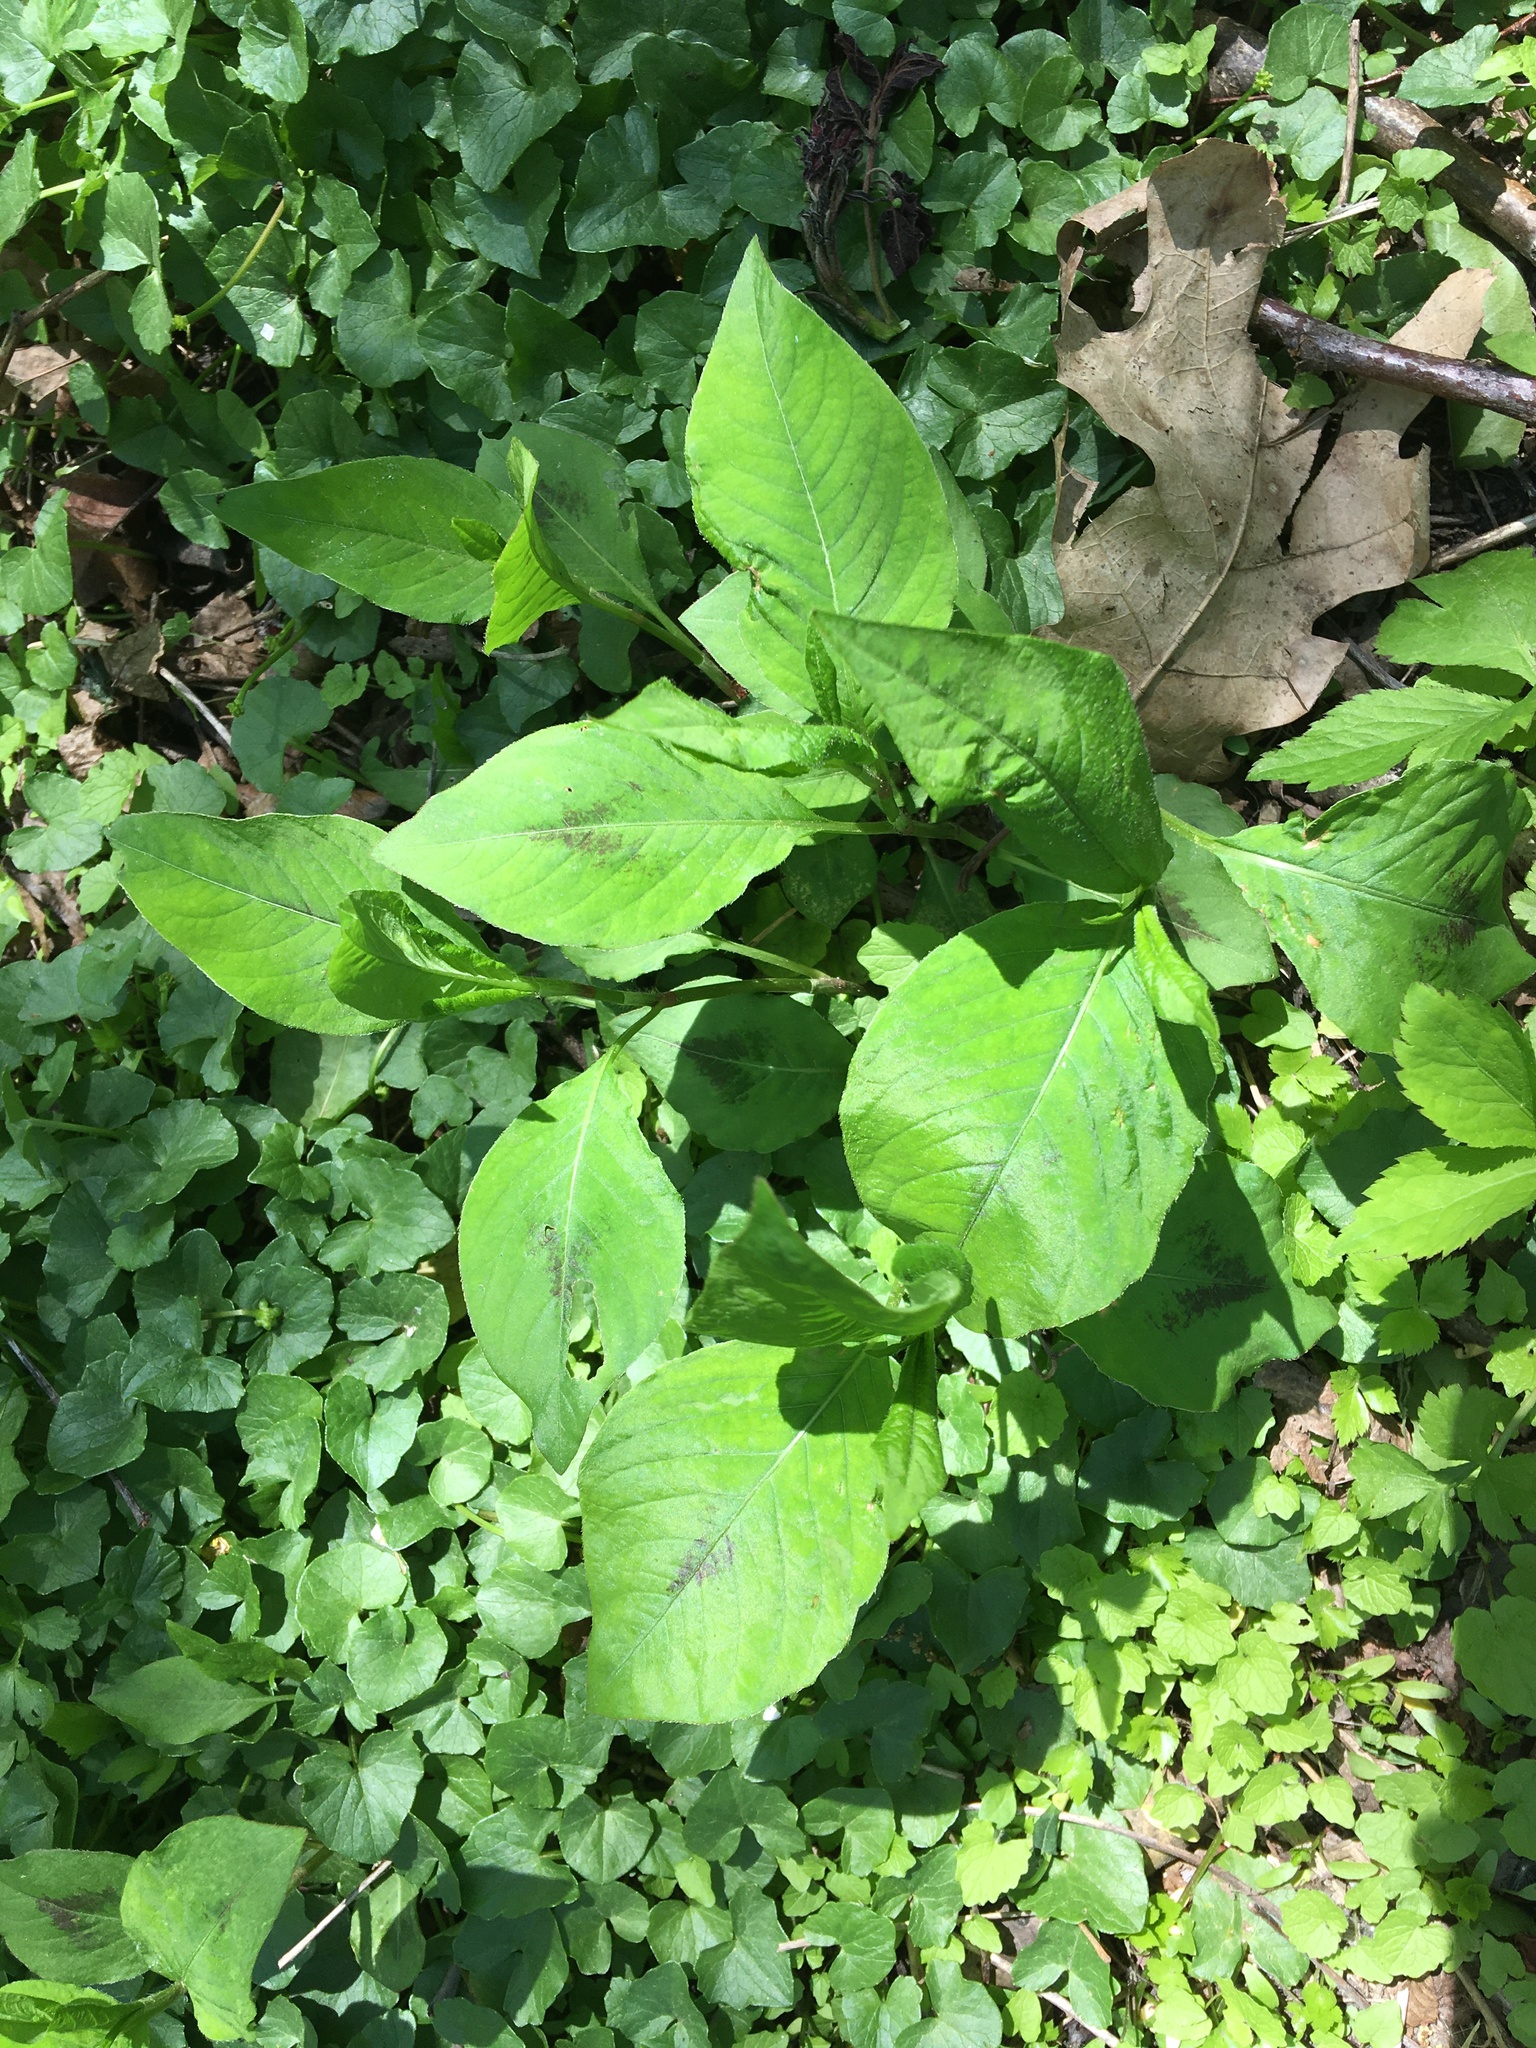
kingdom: Plantae
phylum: Tracheophyta
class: Magnoliopsida
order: Caryophyllales
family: Polygonaceae
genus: Persicaria
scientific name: Persicaria virginiana
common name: Jumpseed
